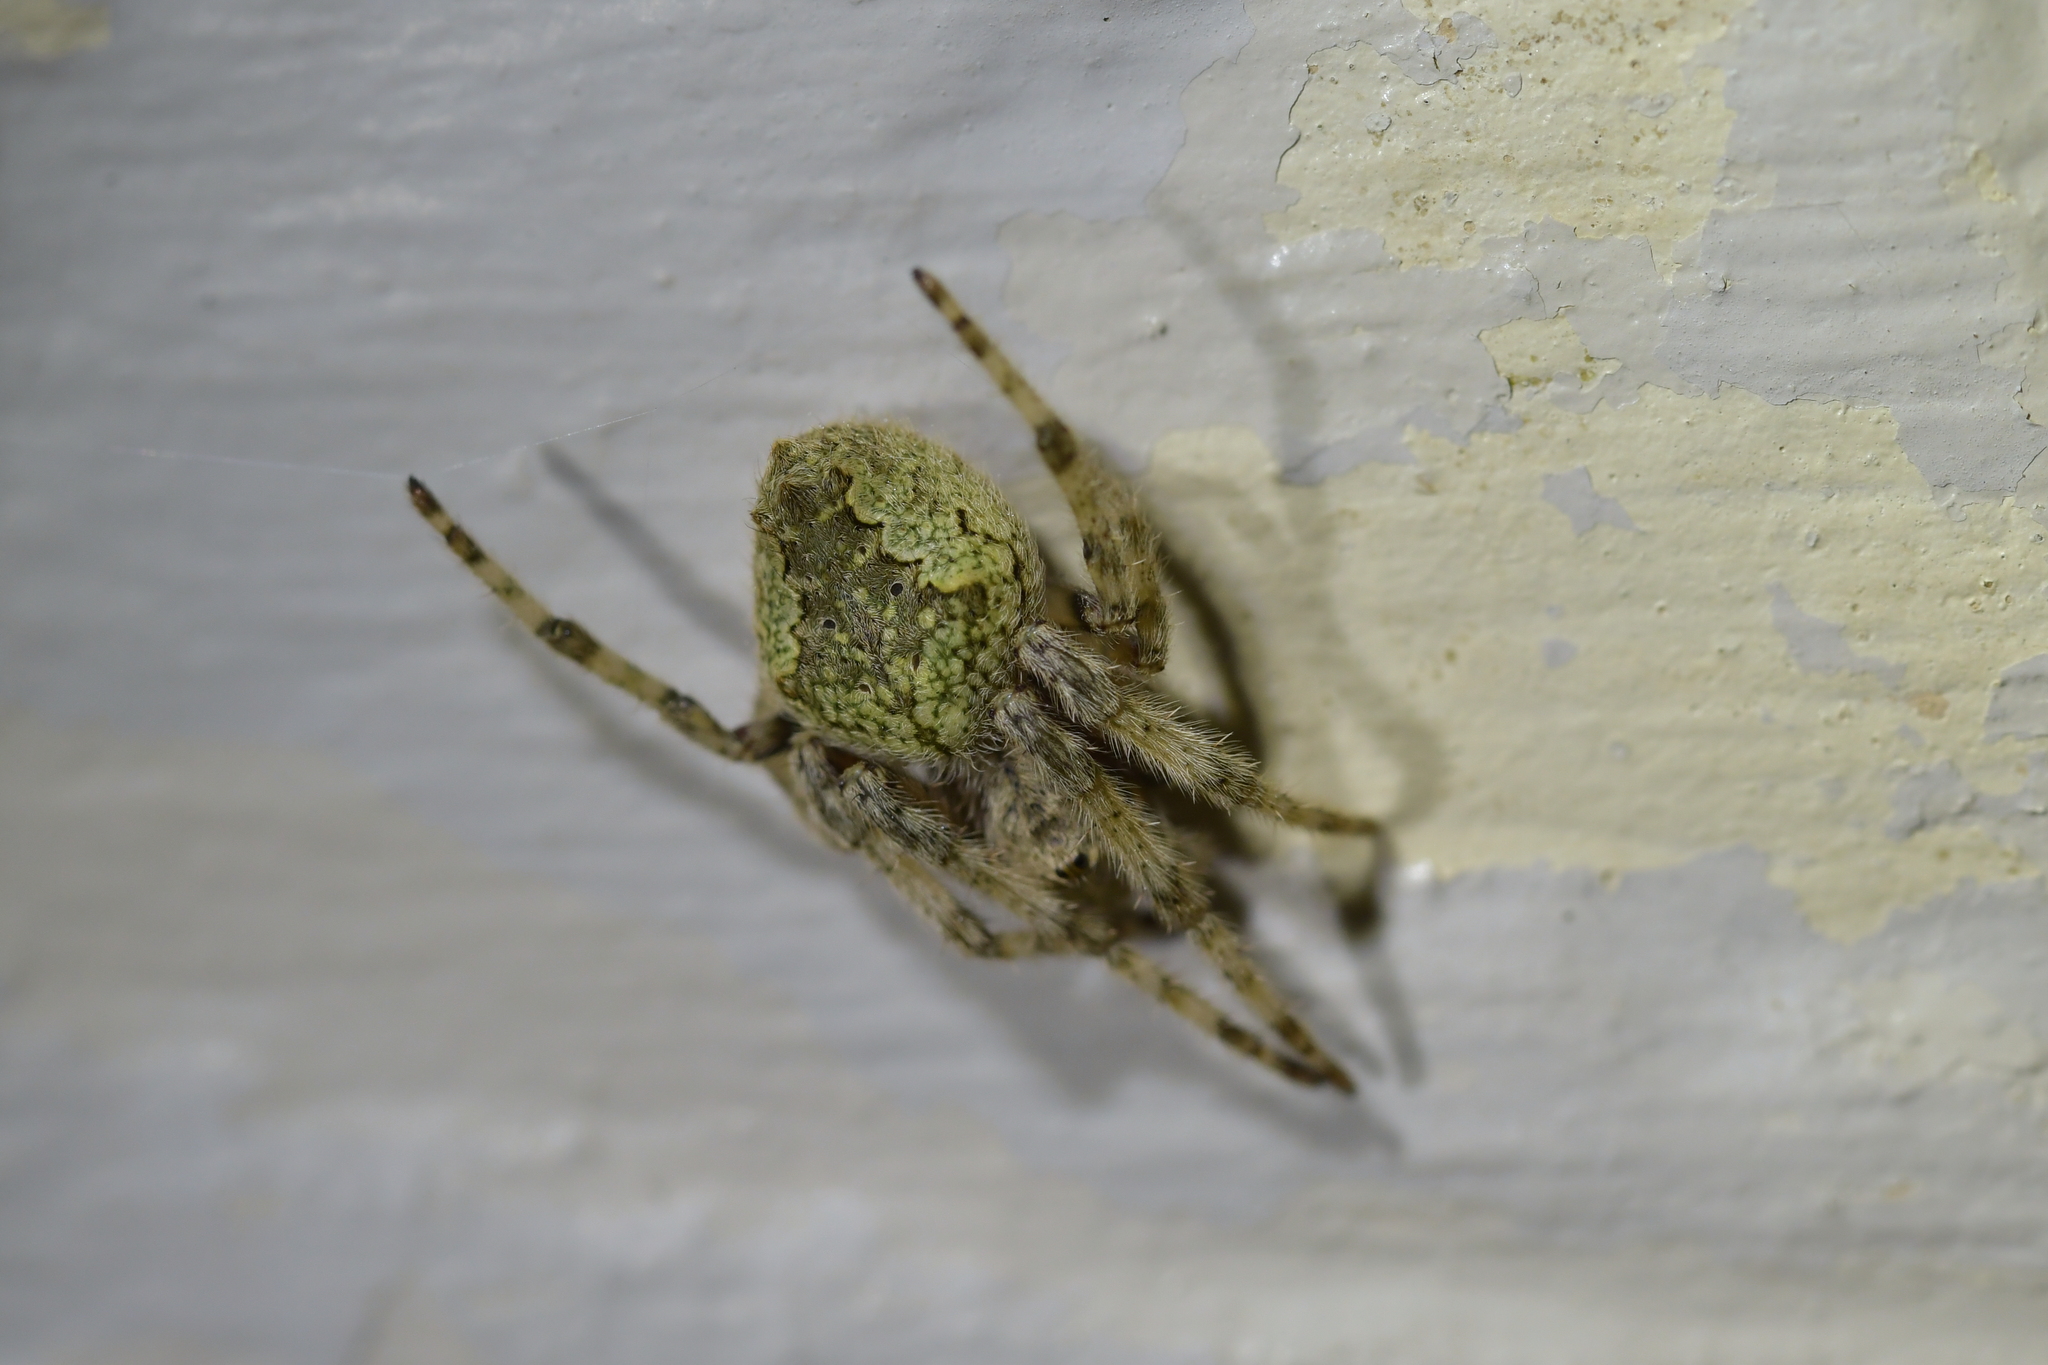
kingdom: Animalia
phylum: Arthropoda
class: Arachnida
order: Araneae
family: Araneidae
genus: Eriophora
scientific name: Eriophora pustulosa
